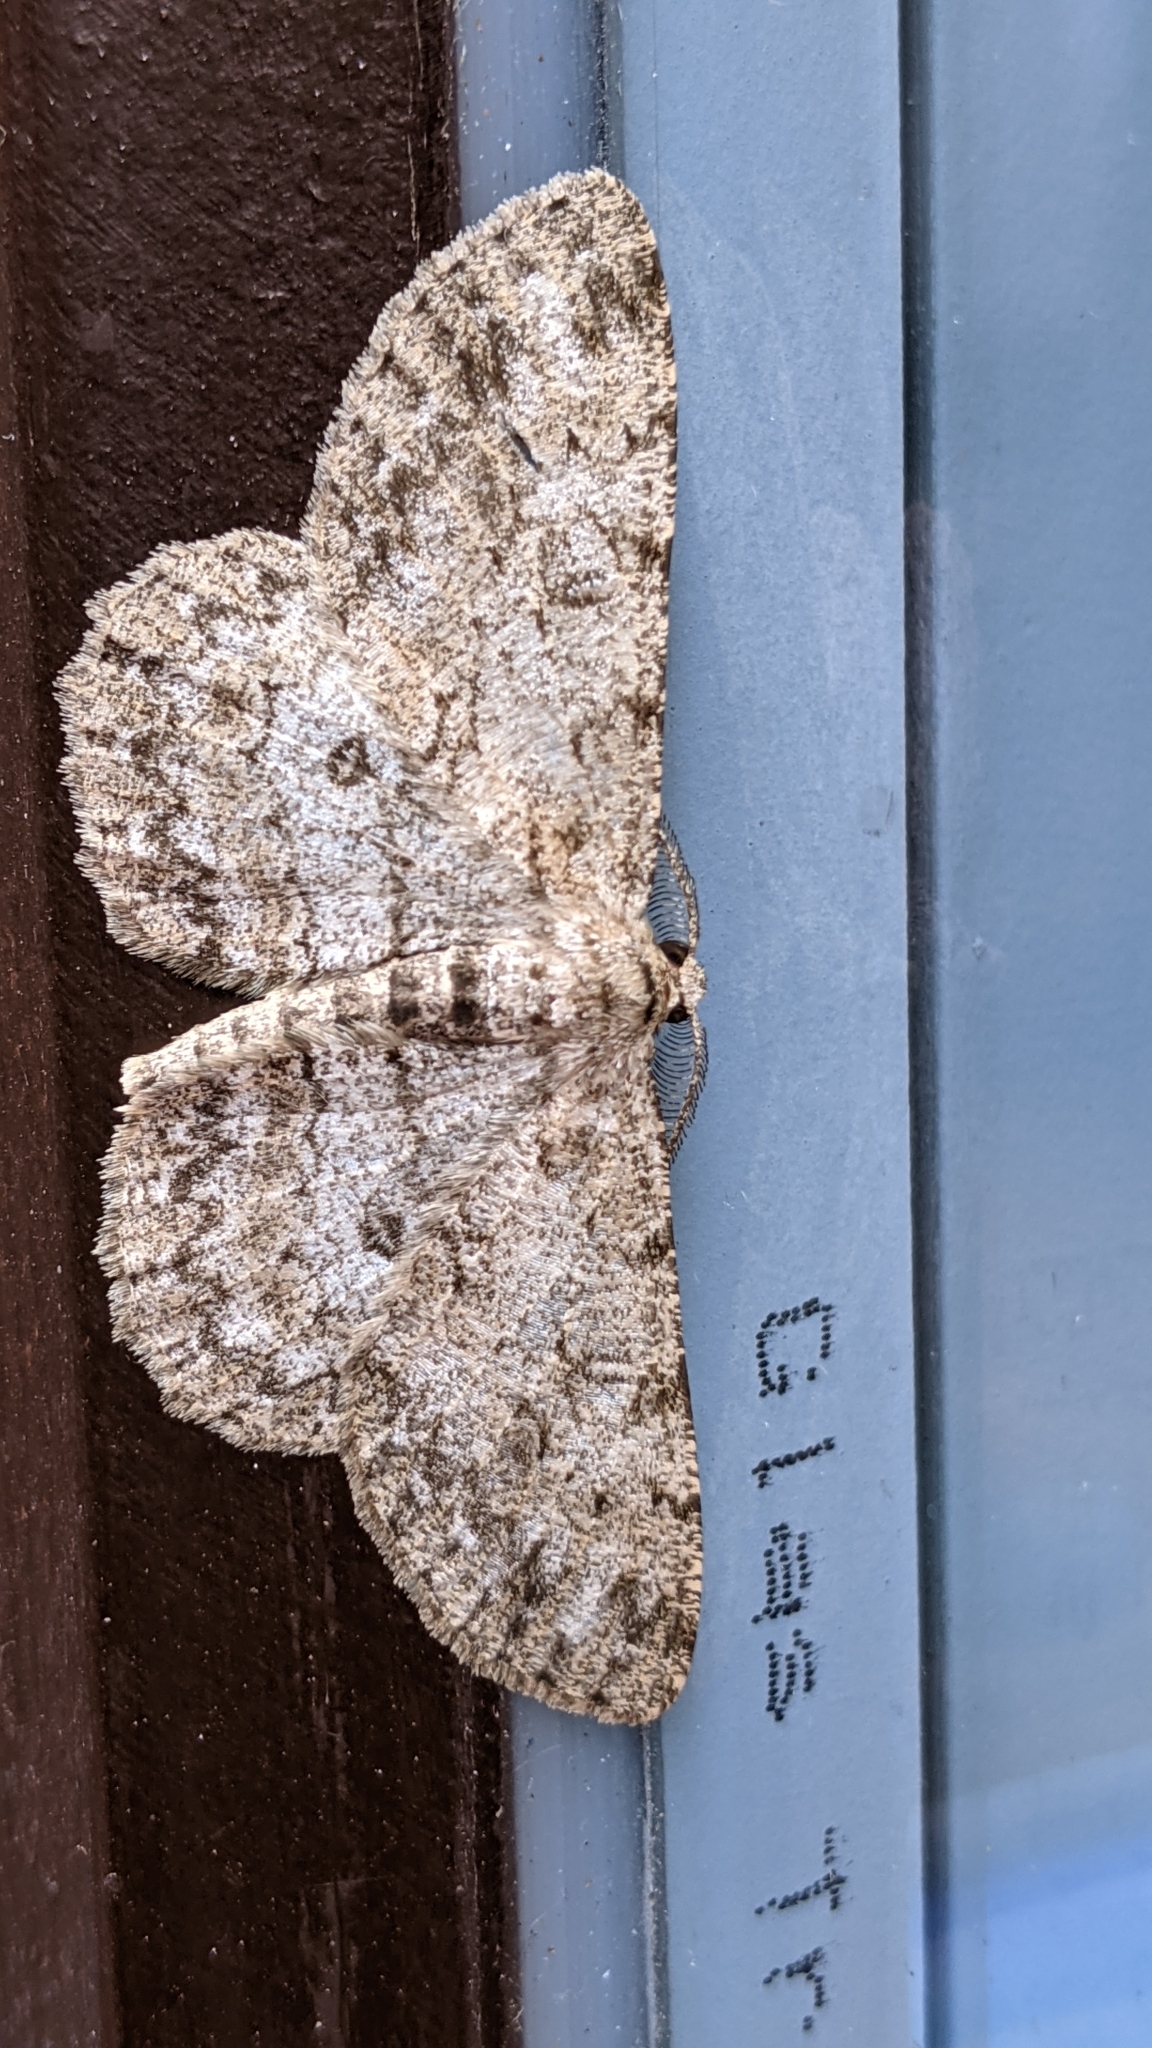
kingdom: Animalia
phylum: Arthropoda
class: Insecta
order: Lepidoptera
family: Geometridae
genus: Hypomecis
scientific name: Hypomecis punctinalis
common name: Pale oak beauty
